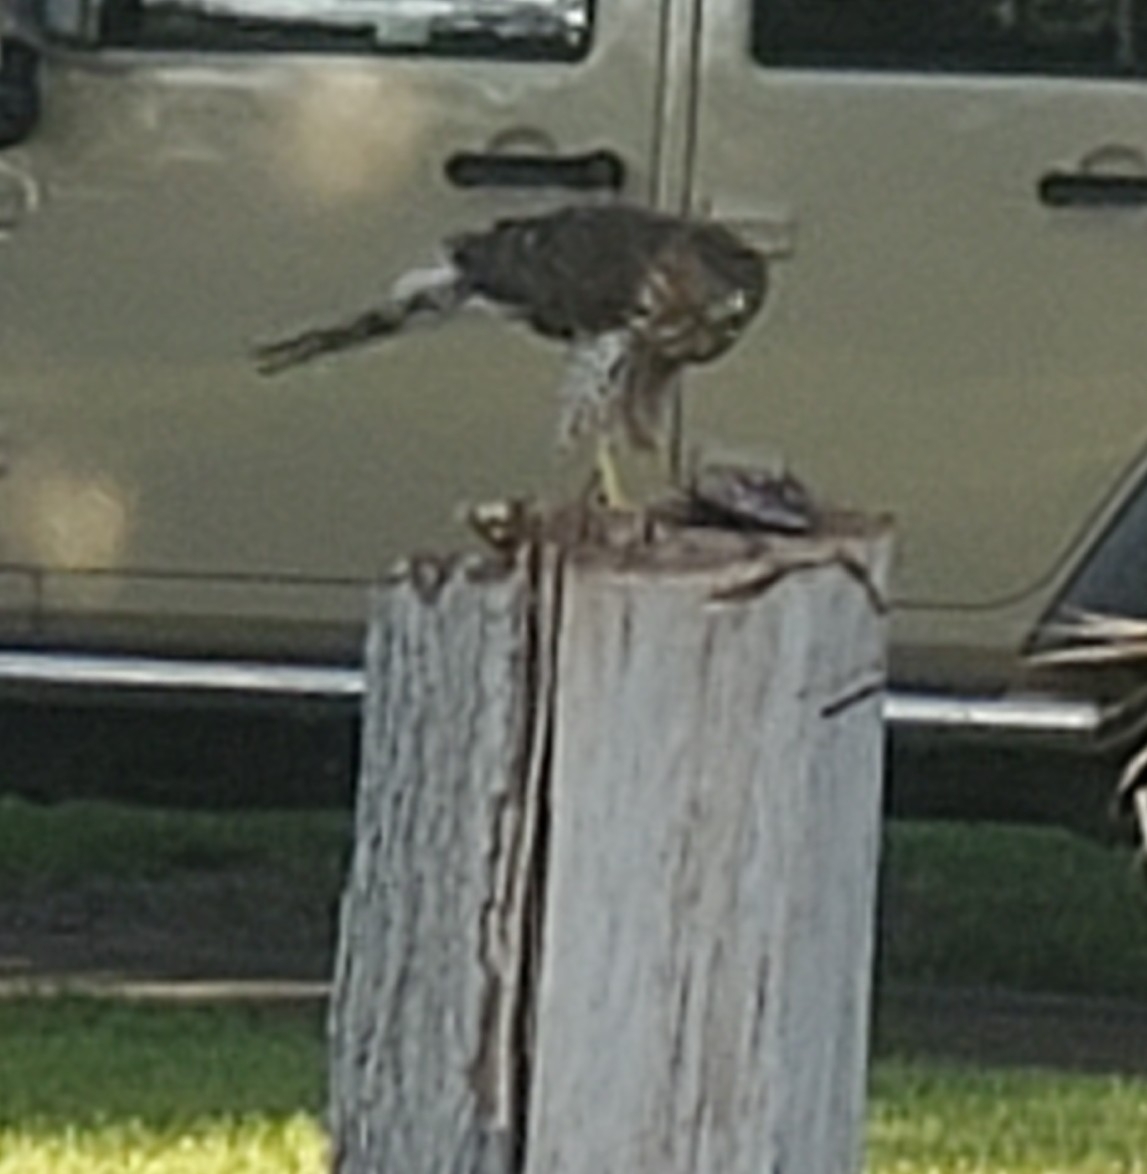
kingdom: Animalia
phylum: Chordata
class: Aves
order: Accipitriformes
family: Accipitridae
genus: Accipiter
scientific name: Accipiter cooperii
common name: Cooper's hawk
